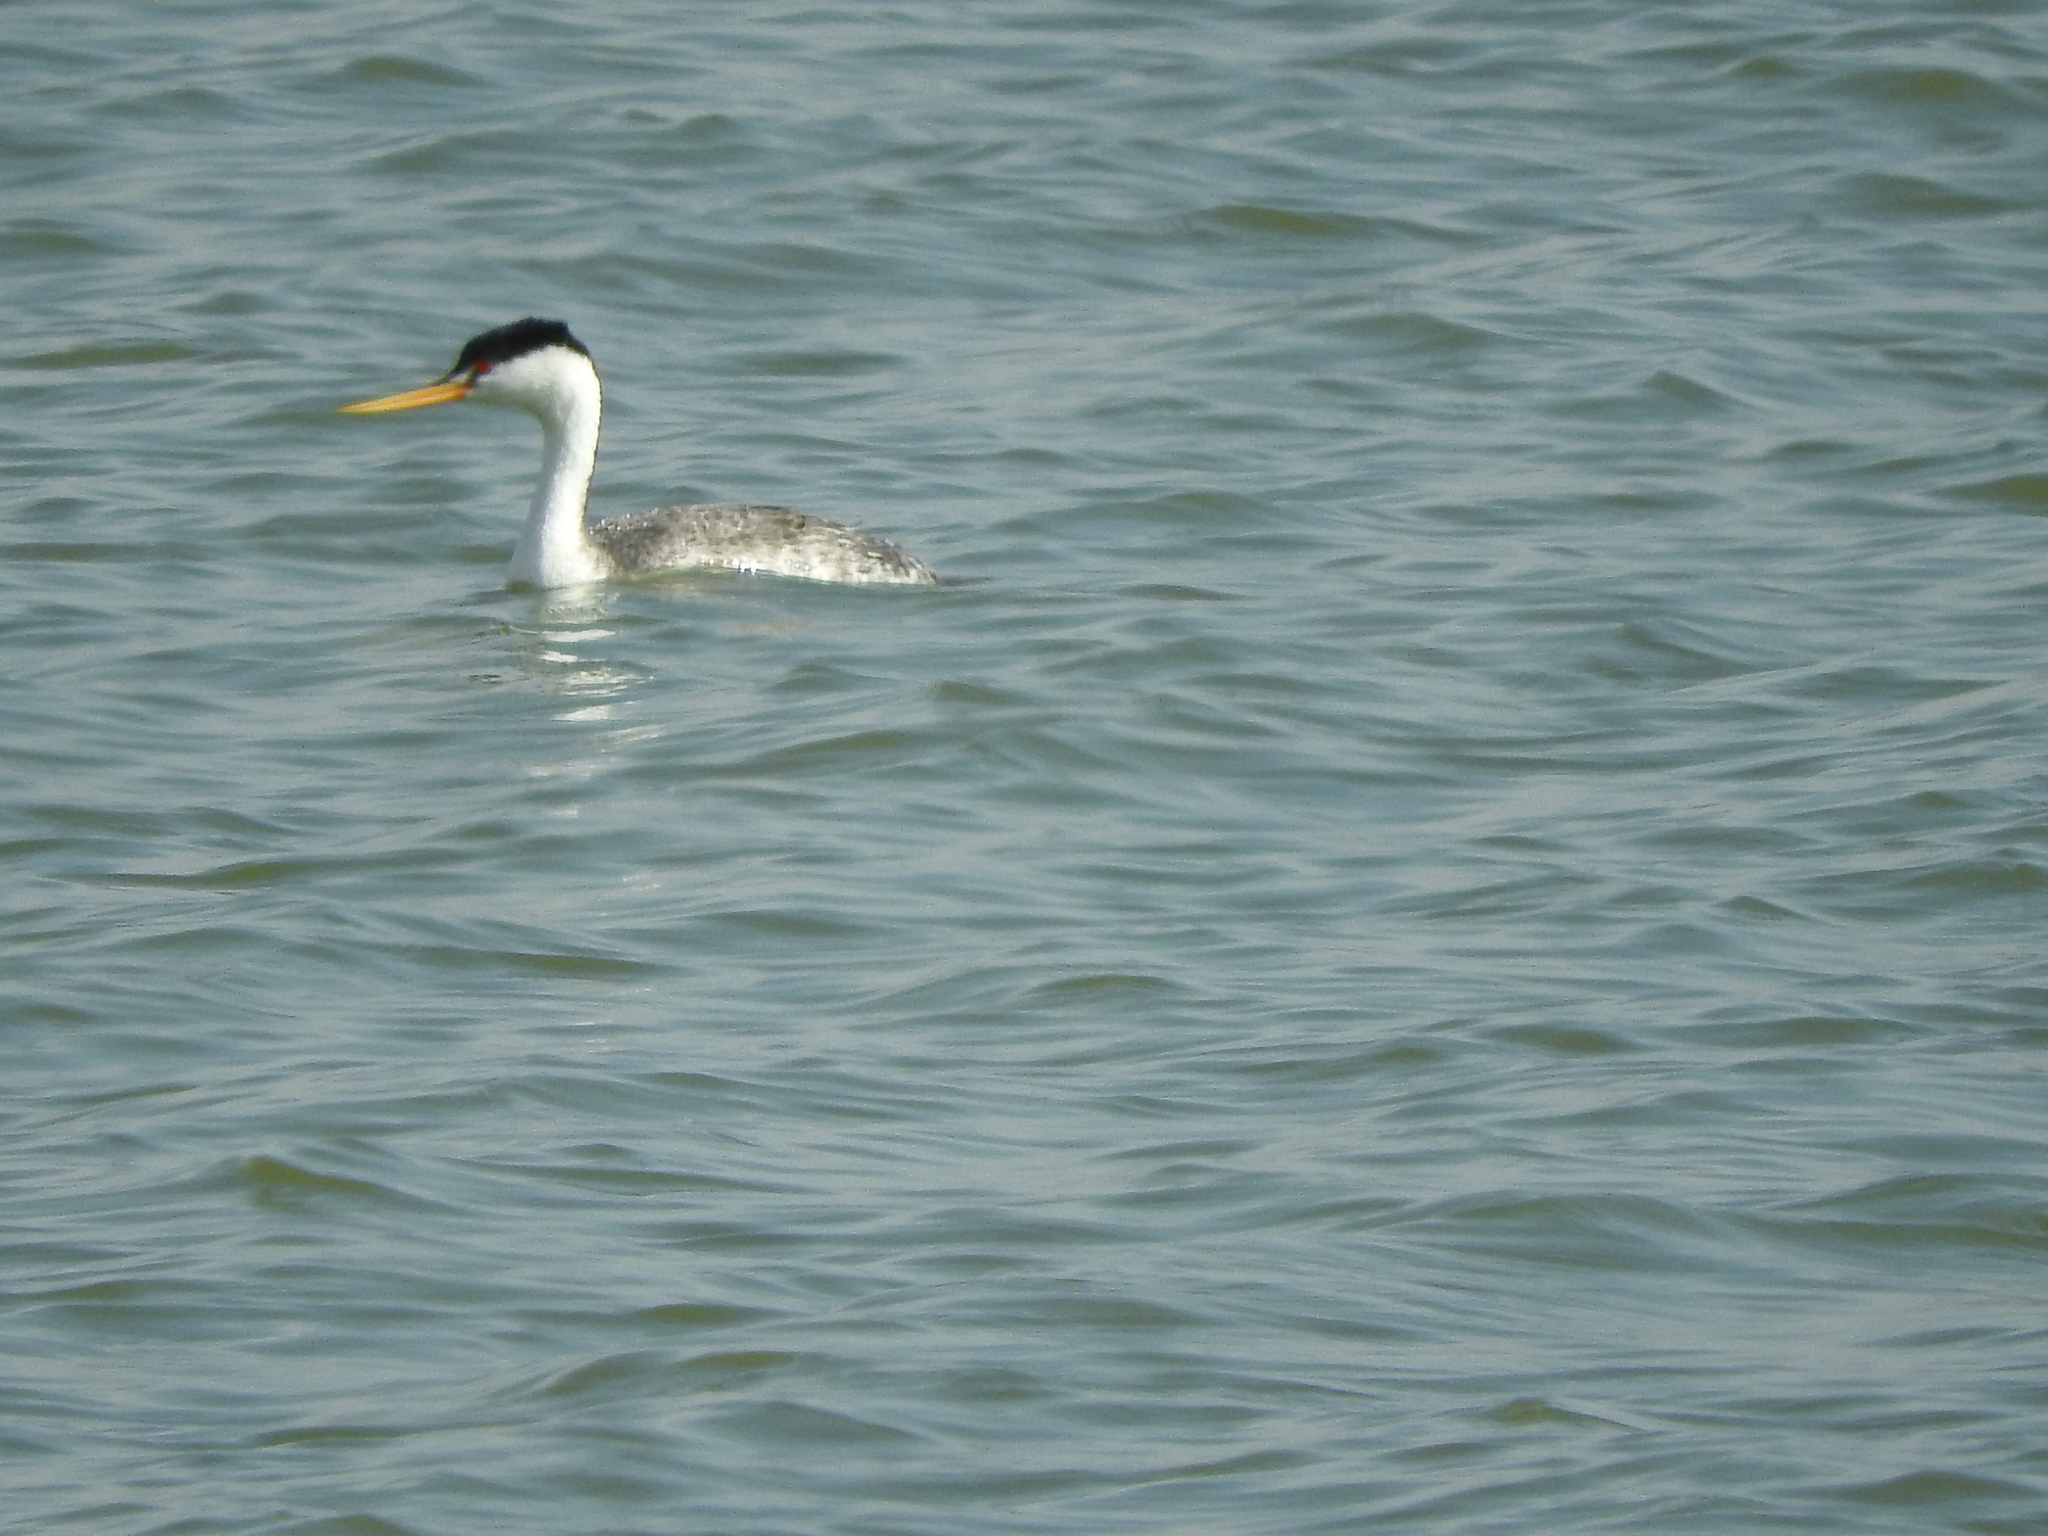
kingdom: Animalia
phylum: Chordata
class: Aves
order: Podicipediformes
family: Podicipedidae
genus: Aechmophorus
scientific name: Aechmophorus clarkii
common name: Clark's grebe
